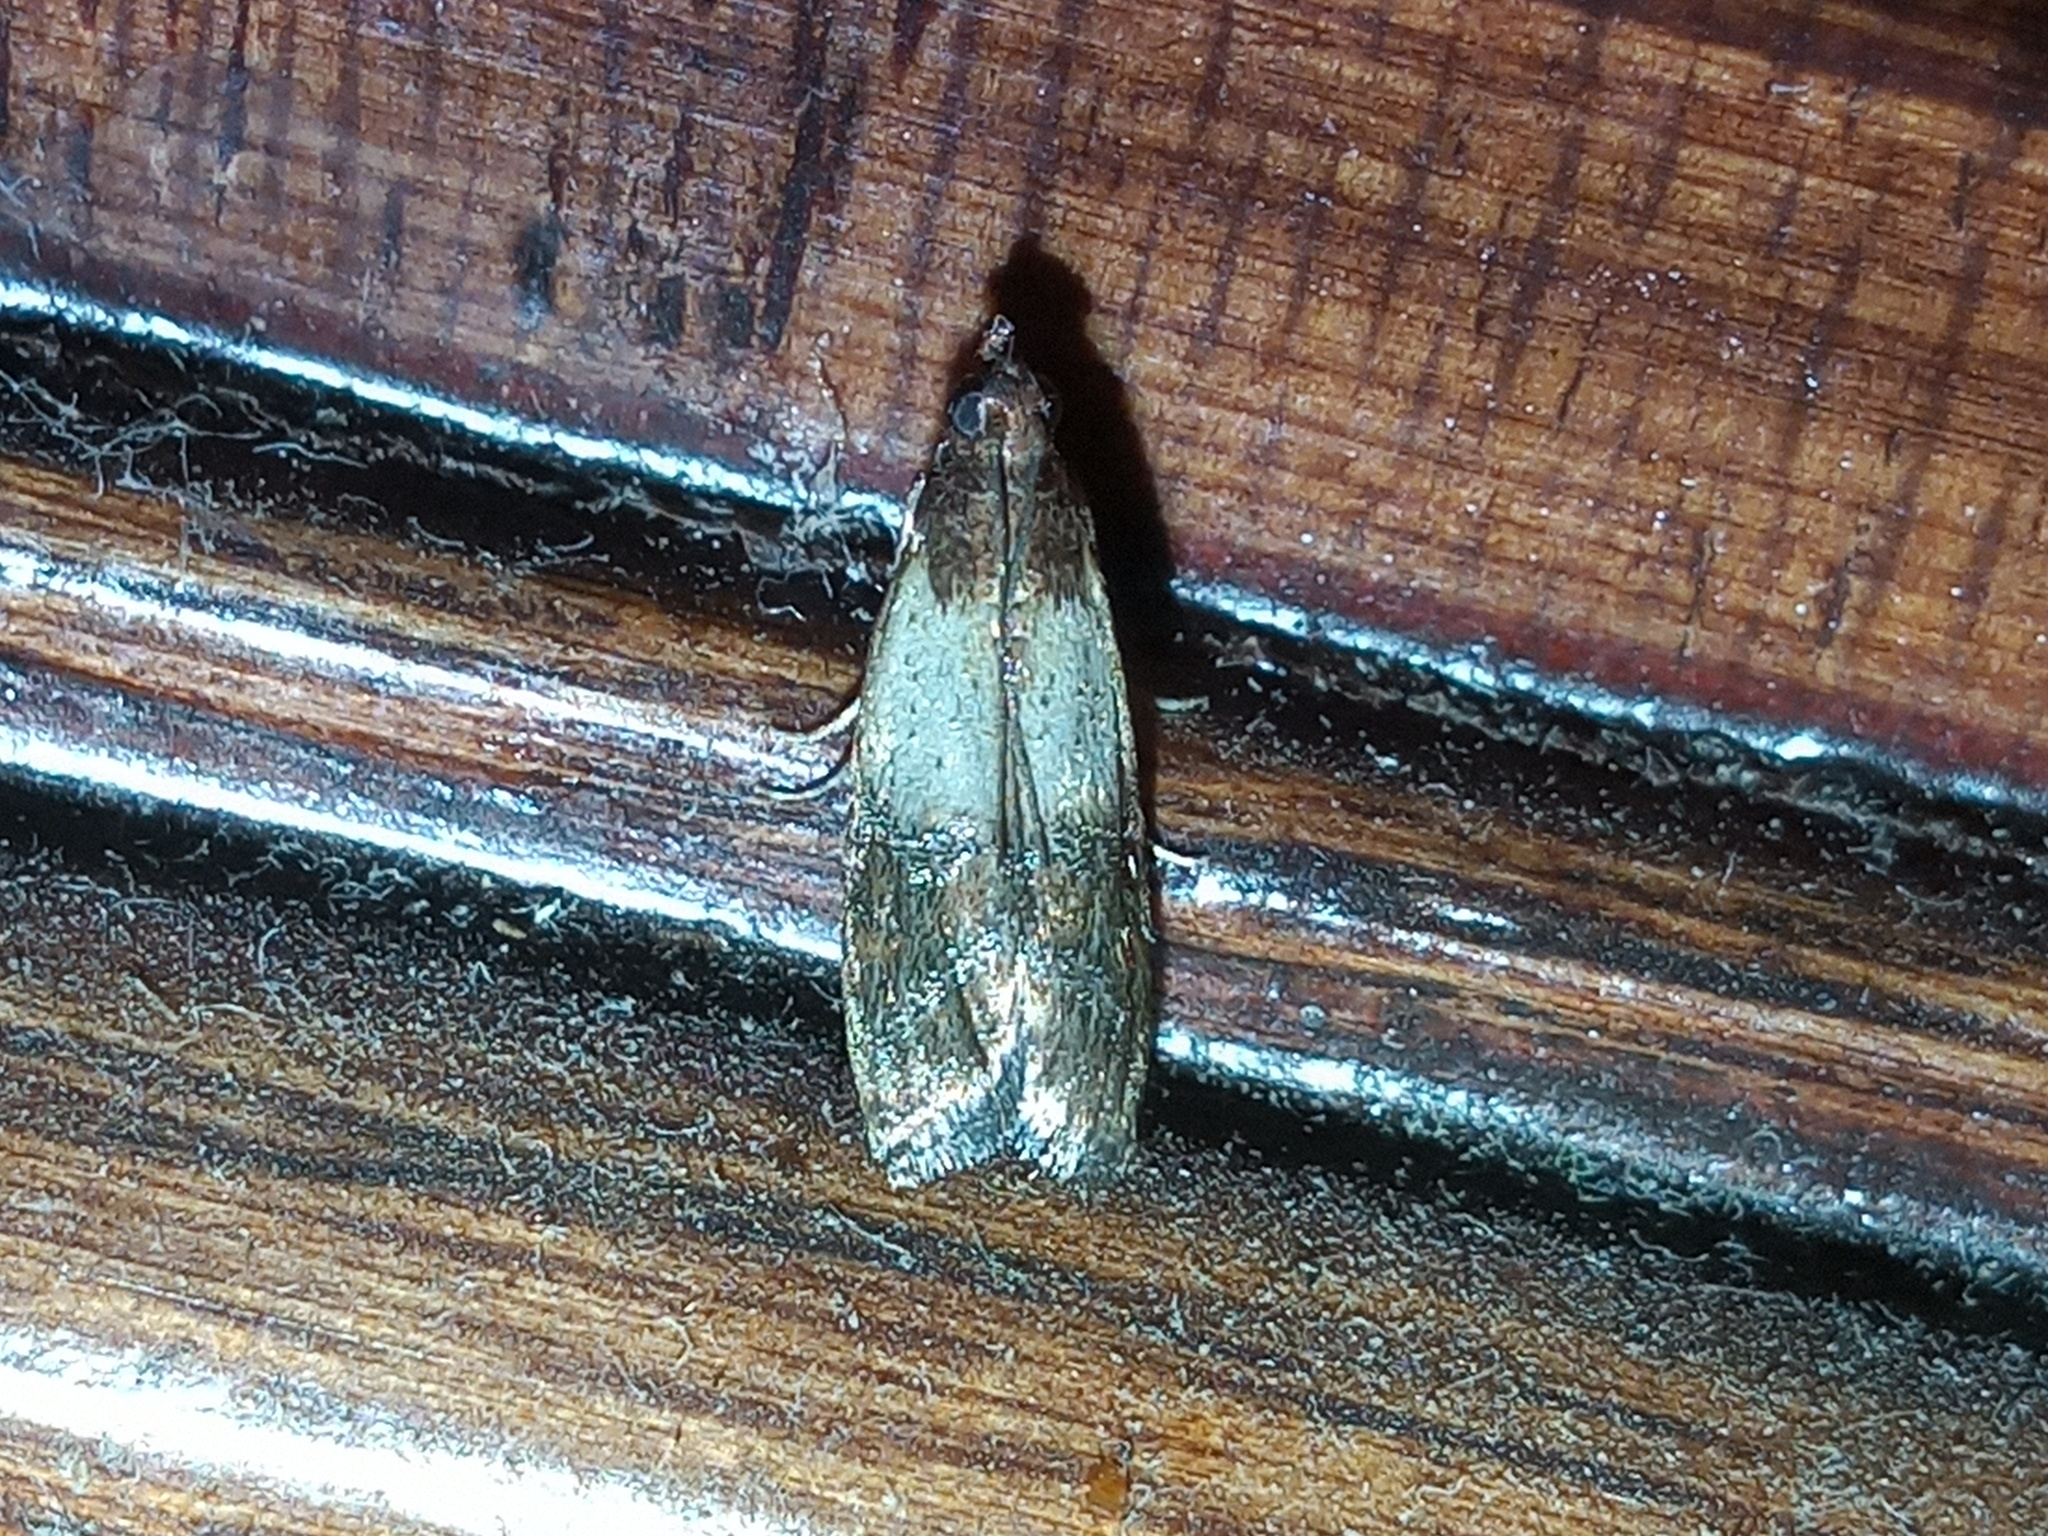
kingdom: Animalia
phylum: Arthropoda
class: Insecta
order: Lepidoptera
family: Pyralidae
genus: Plodia
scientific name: Plodia interpunctella
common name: Indian meal moth
